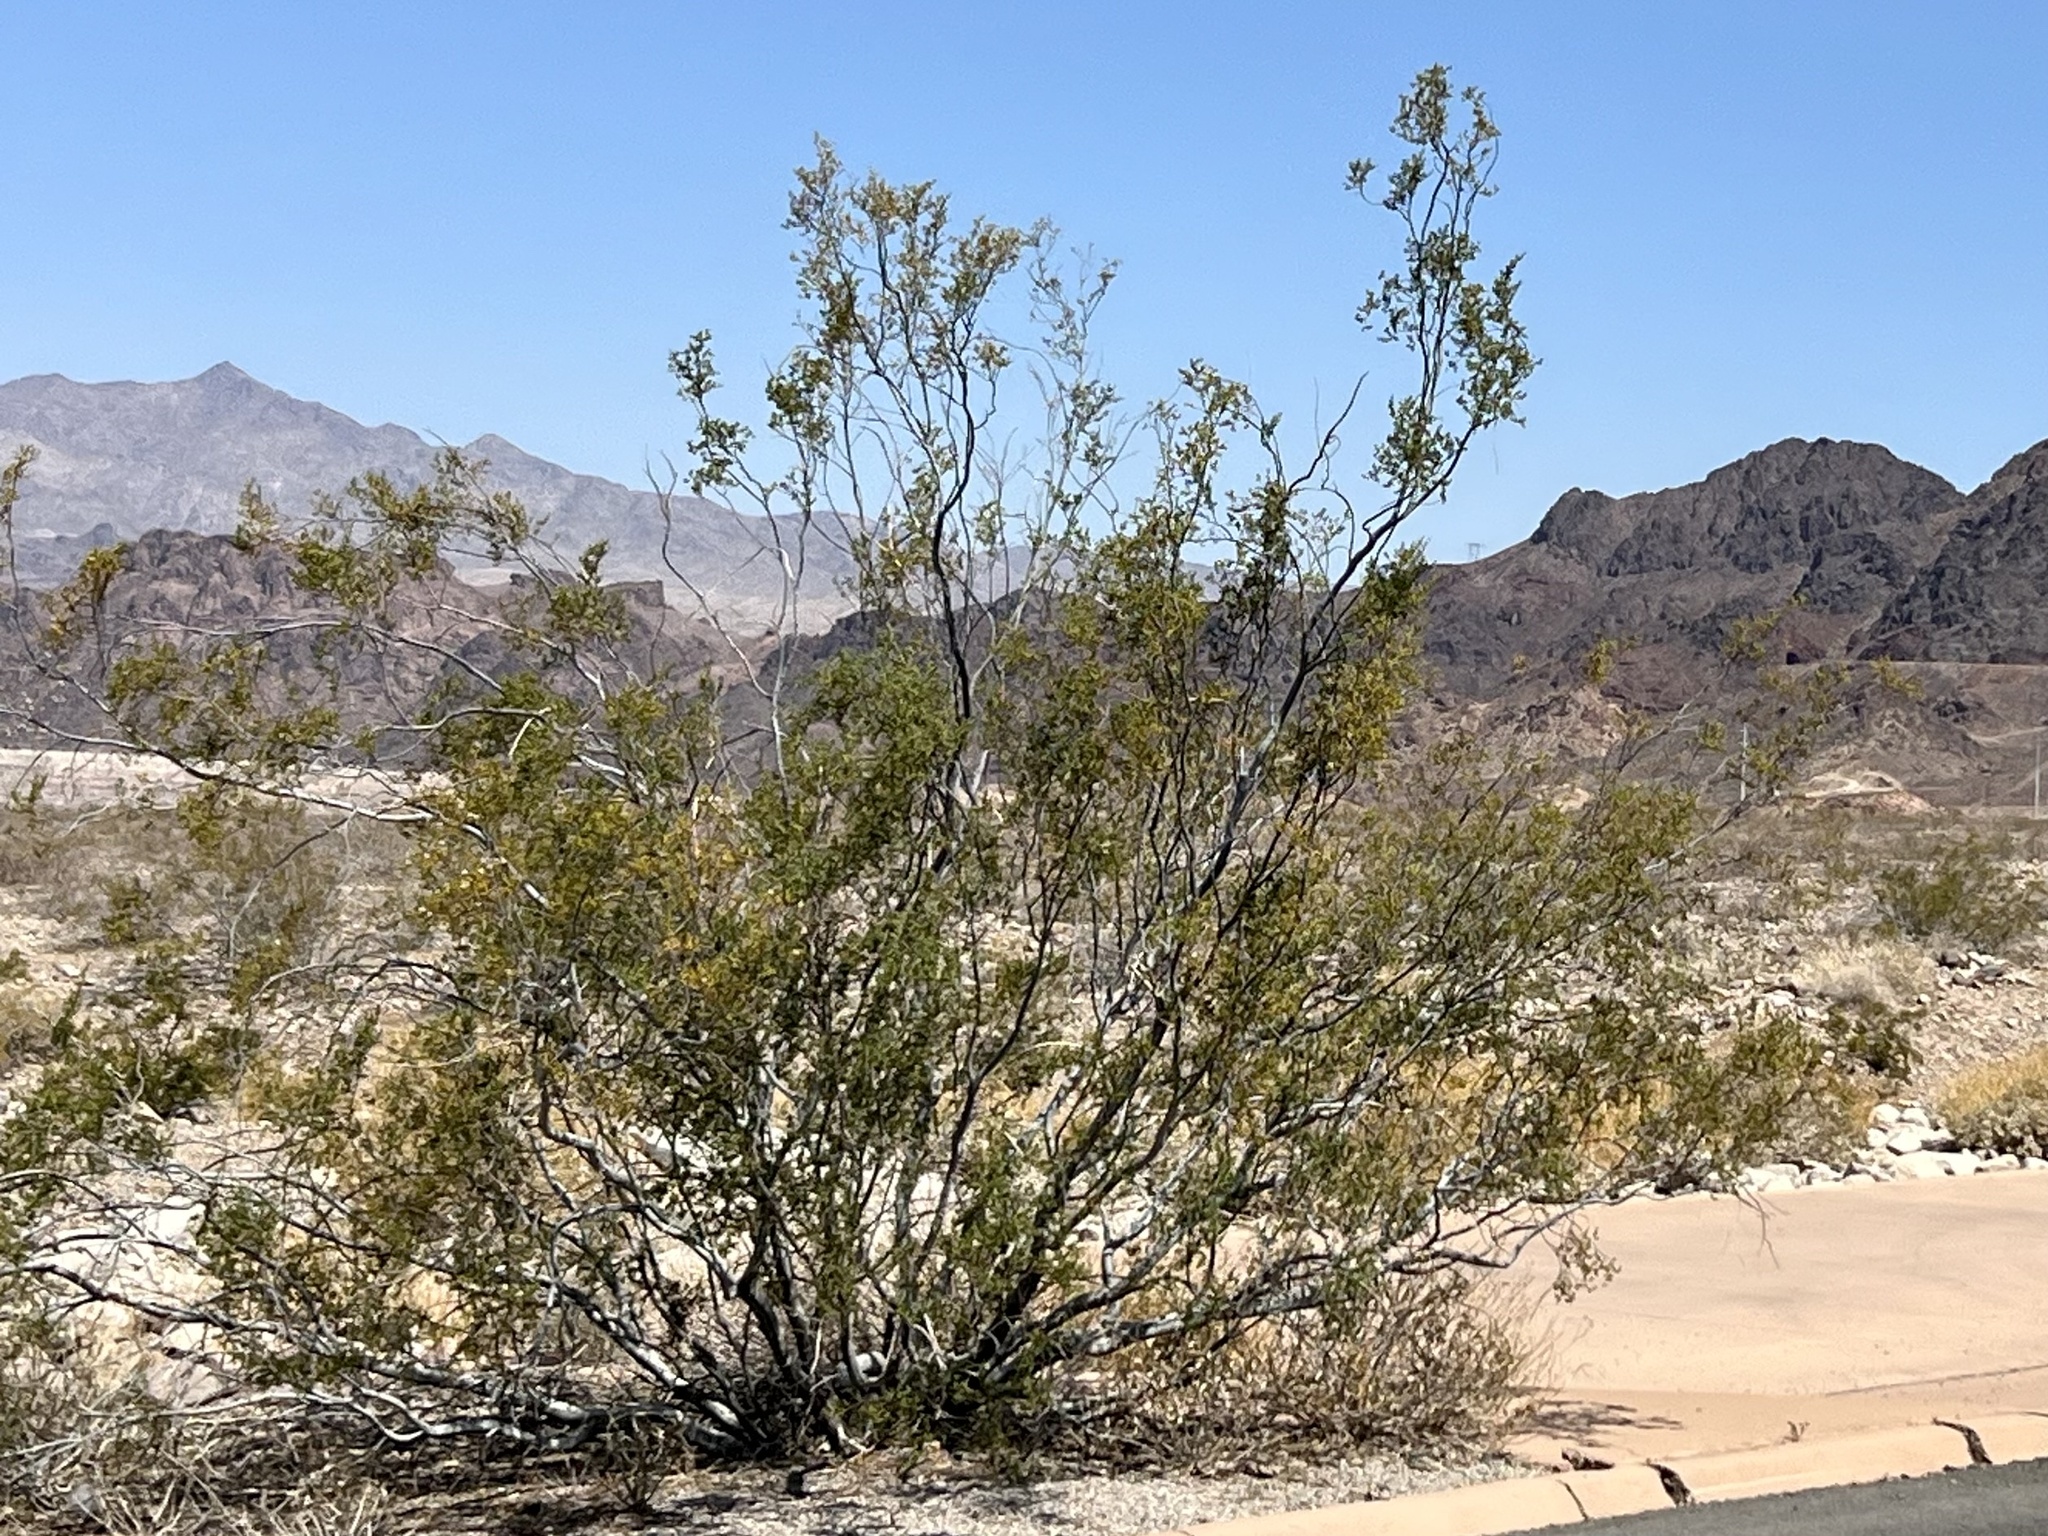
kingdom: Plantae
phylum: Tracheophyta
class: Magnoliopsida
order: Zygophyllales
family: Zygophyllaceae
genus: Larrea
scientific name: Larrea tridentata
